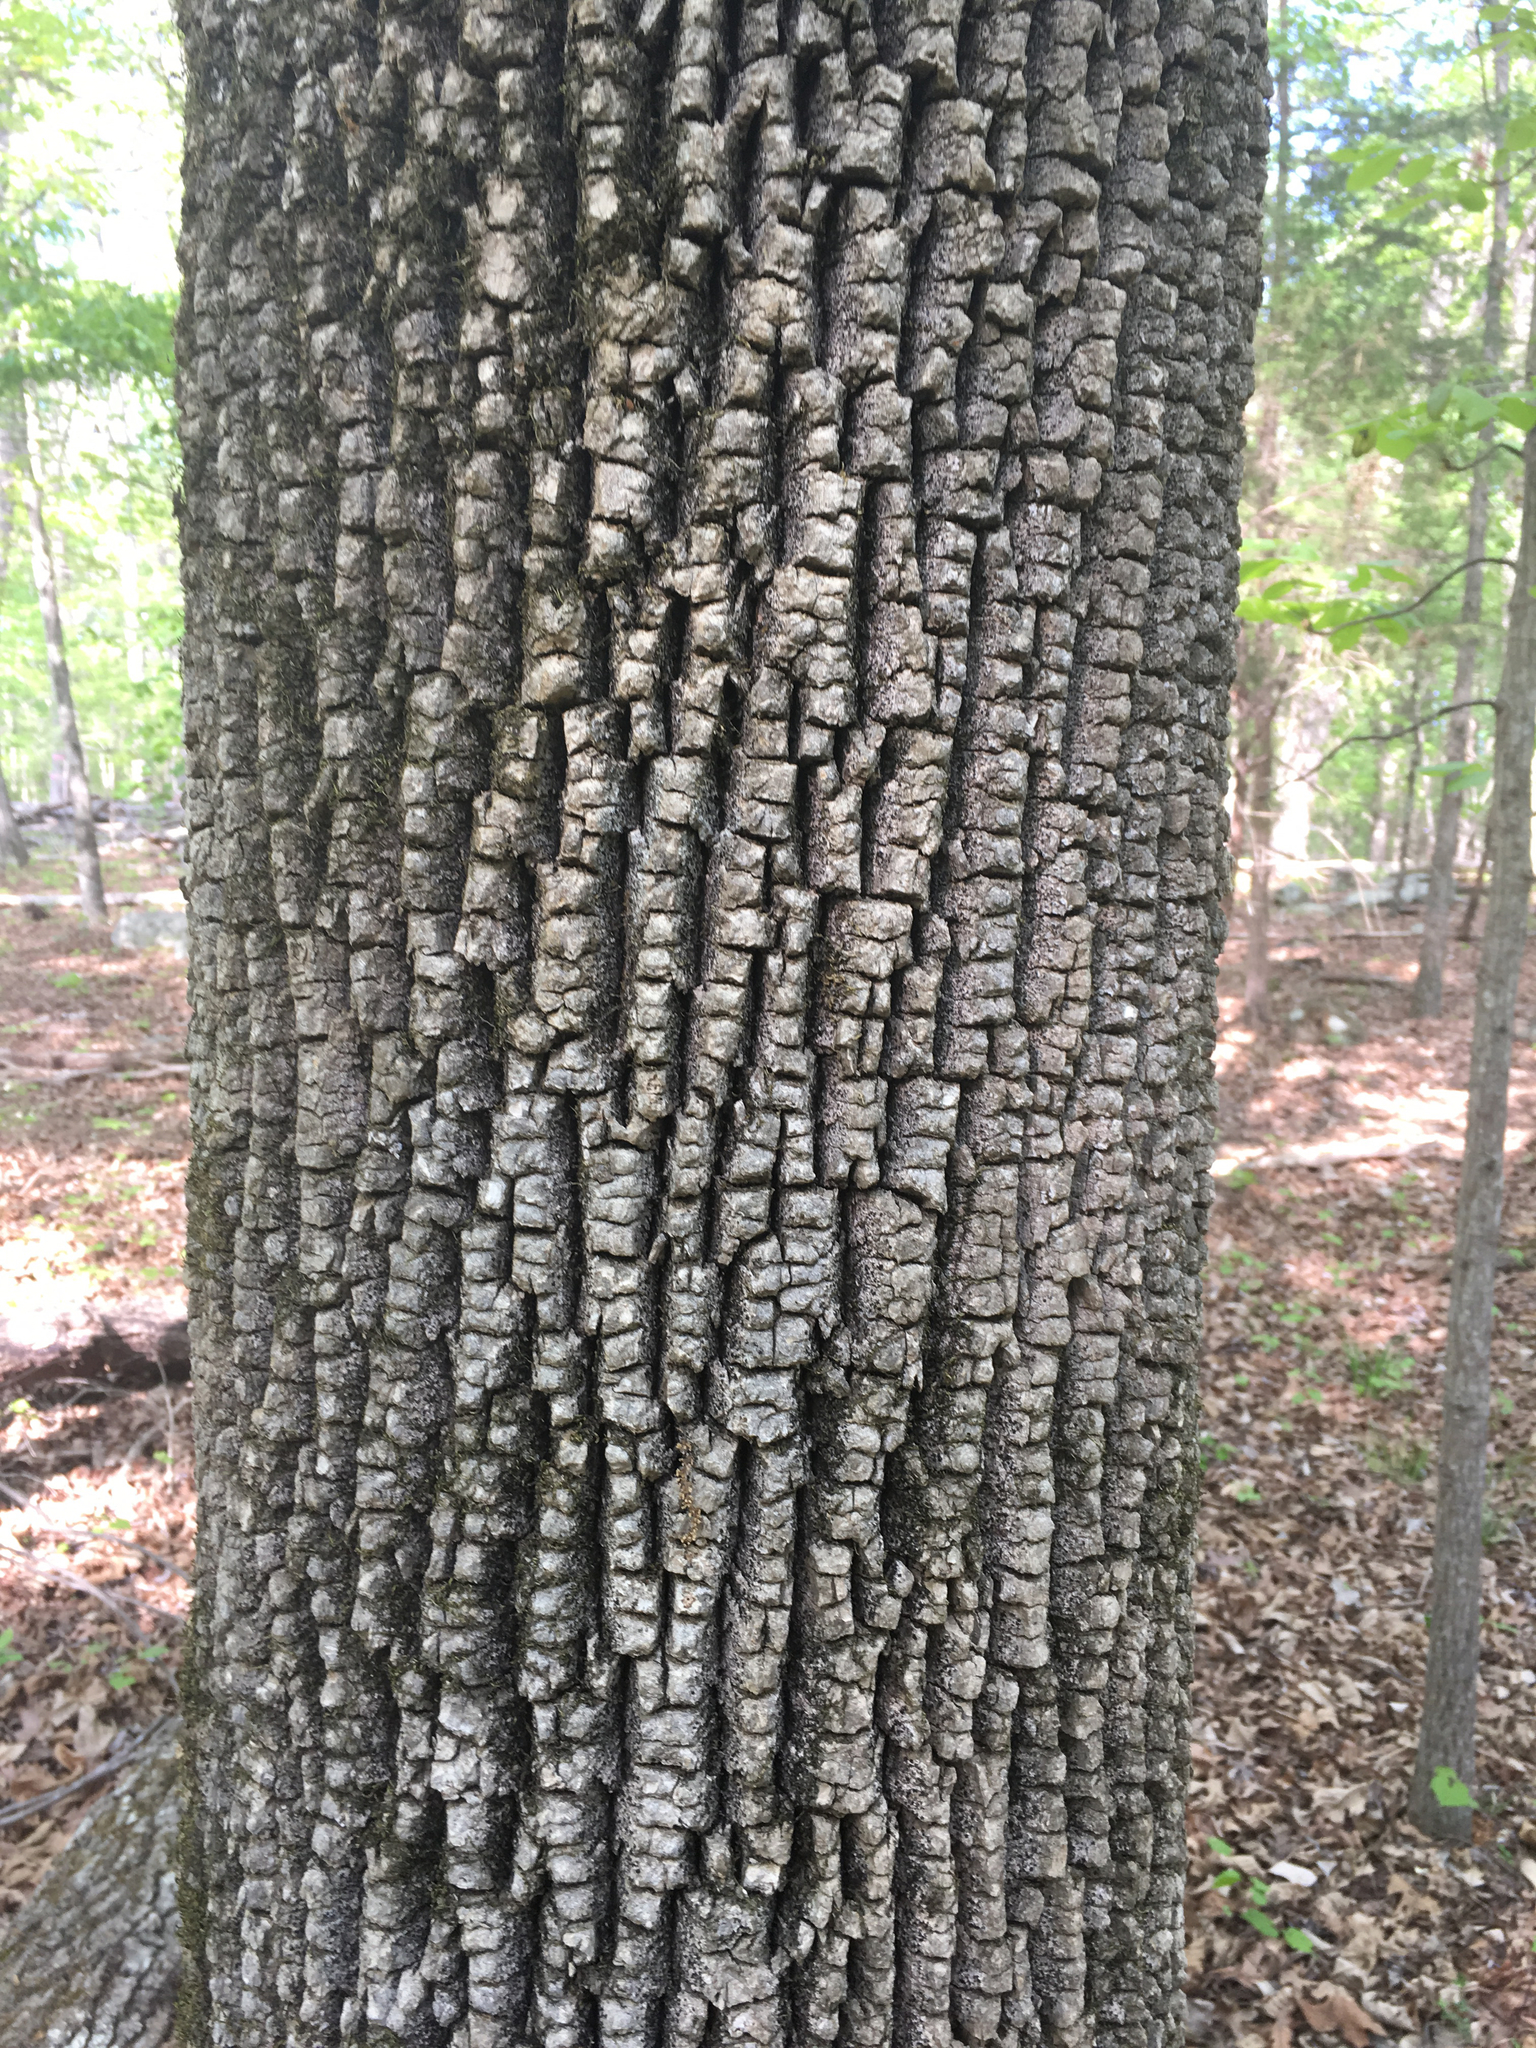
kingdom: Plantae
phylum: Tracheophyta
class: Magnoliopsida
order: Lamiales
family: Oleaceae
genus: Fraxinus
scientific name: Fraxinus americana
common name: White ash
